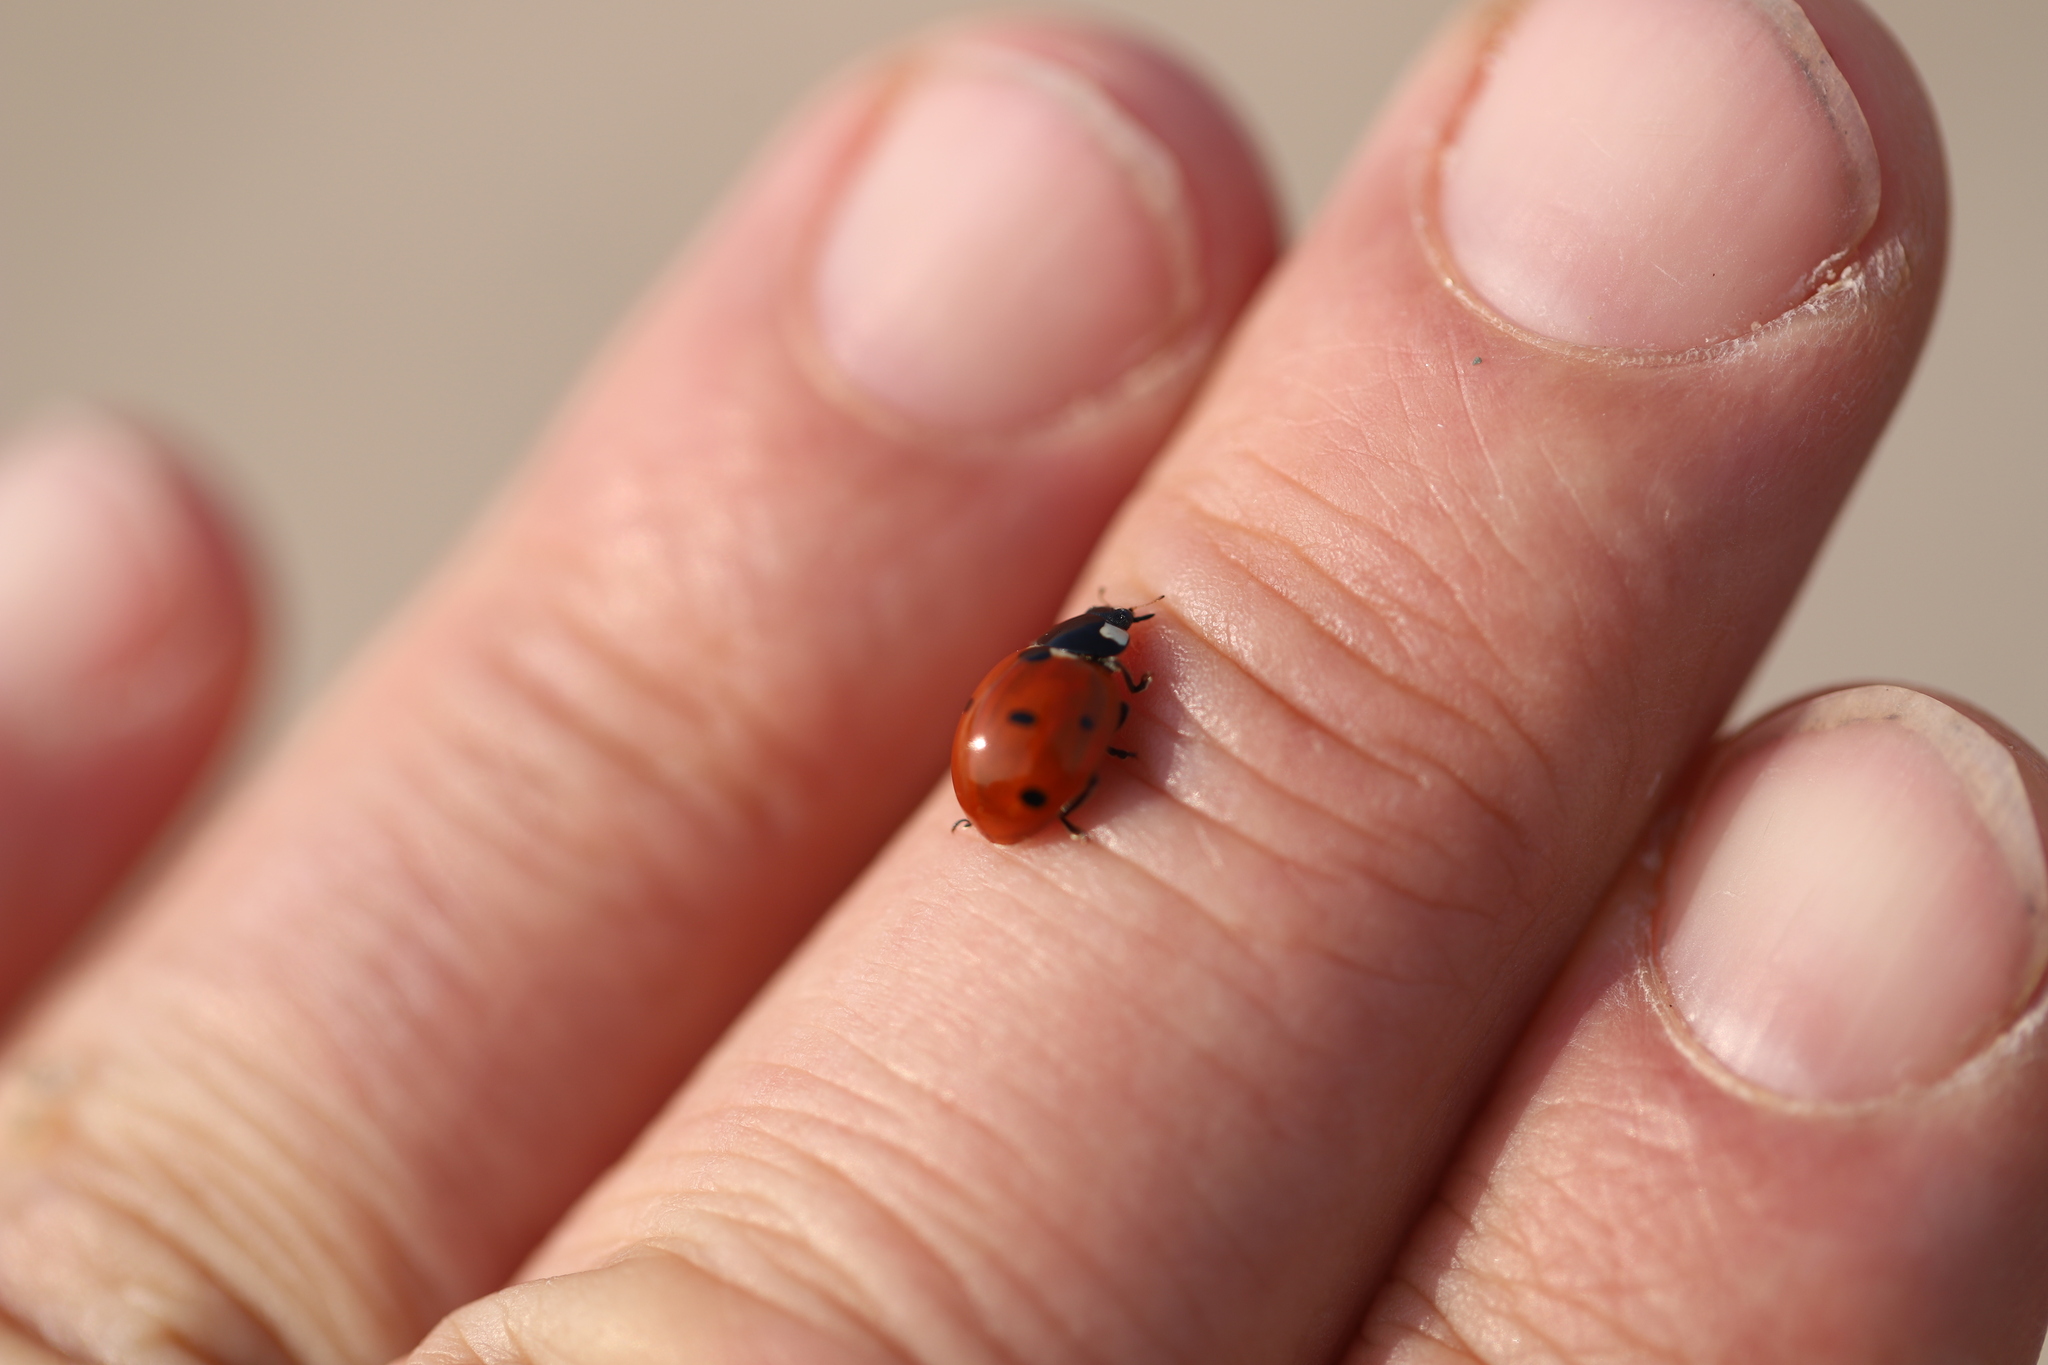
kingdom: Animalia
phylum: Arthropoda
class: Insecta
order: Coleoptera
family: Coccinellidae
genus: Coccinella
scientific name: Coccinella septempunctata
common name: Sevenspotted lady beetle
